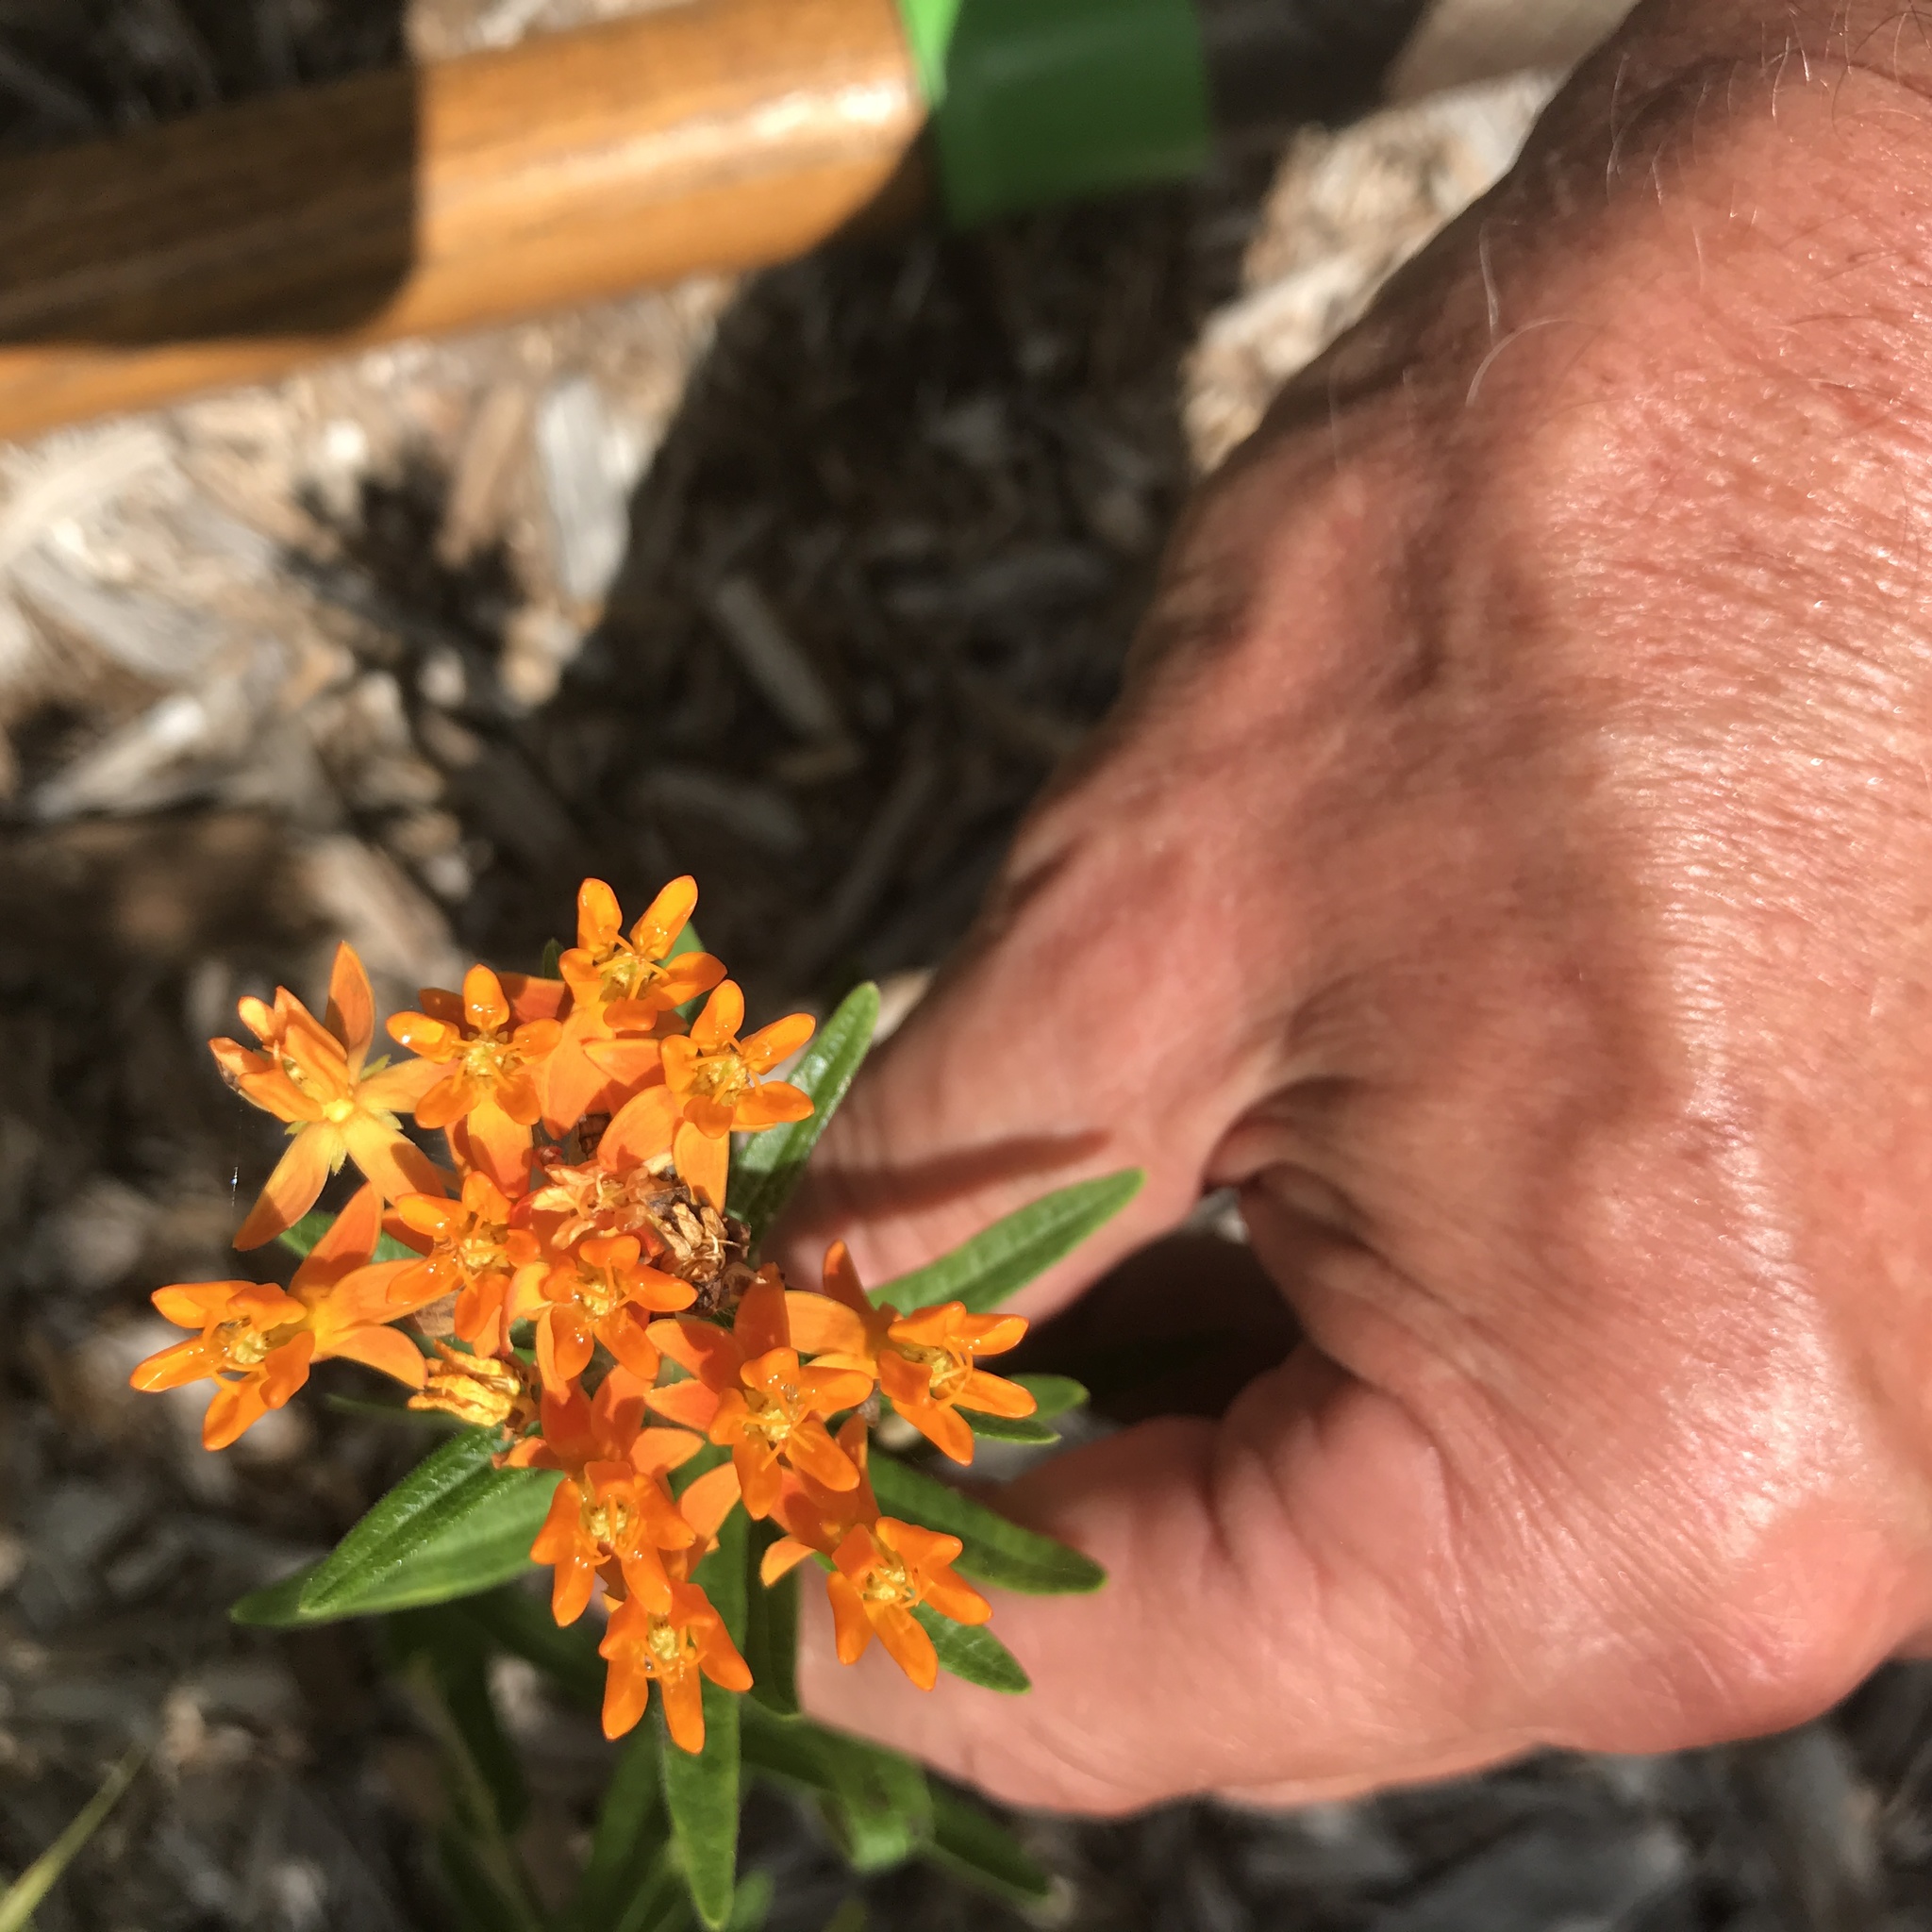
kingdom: Plantae
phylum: Tracheophyta
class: Magnoliopsida
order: Gentianales
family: Apocynaceae
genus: Asclepias
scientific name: Asclepias tuberosa
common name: Butterfly milkweed
